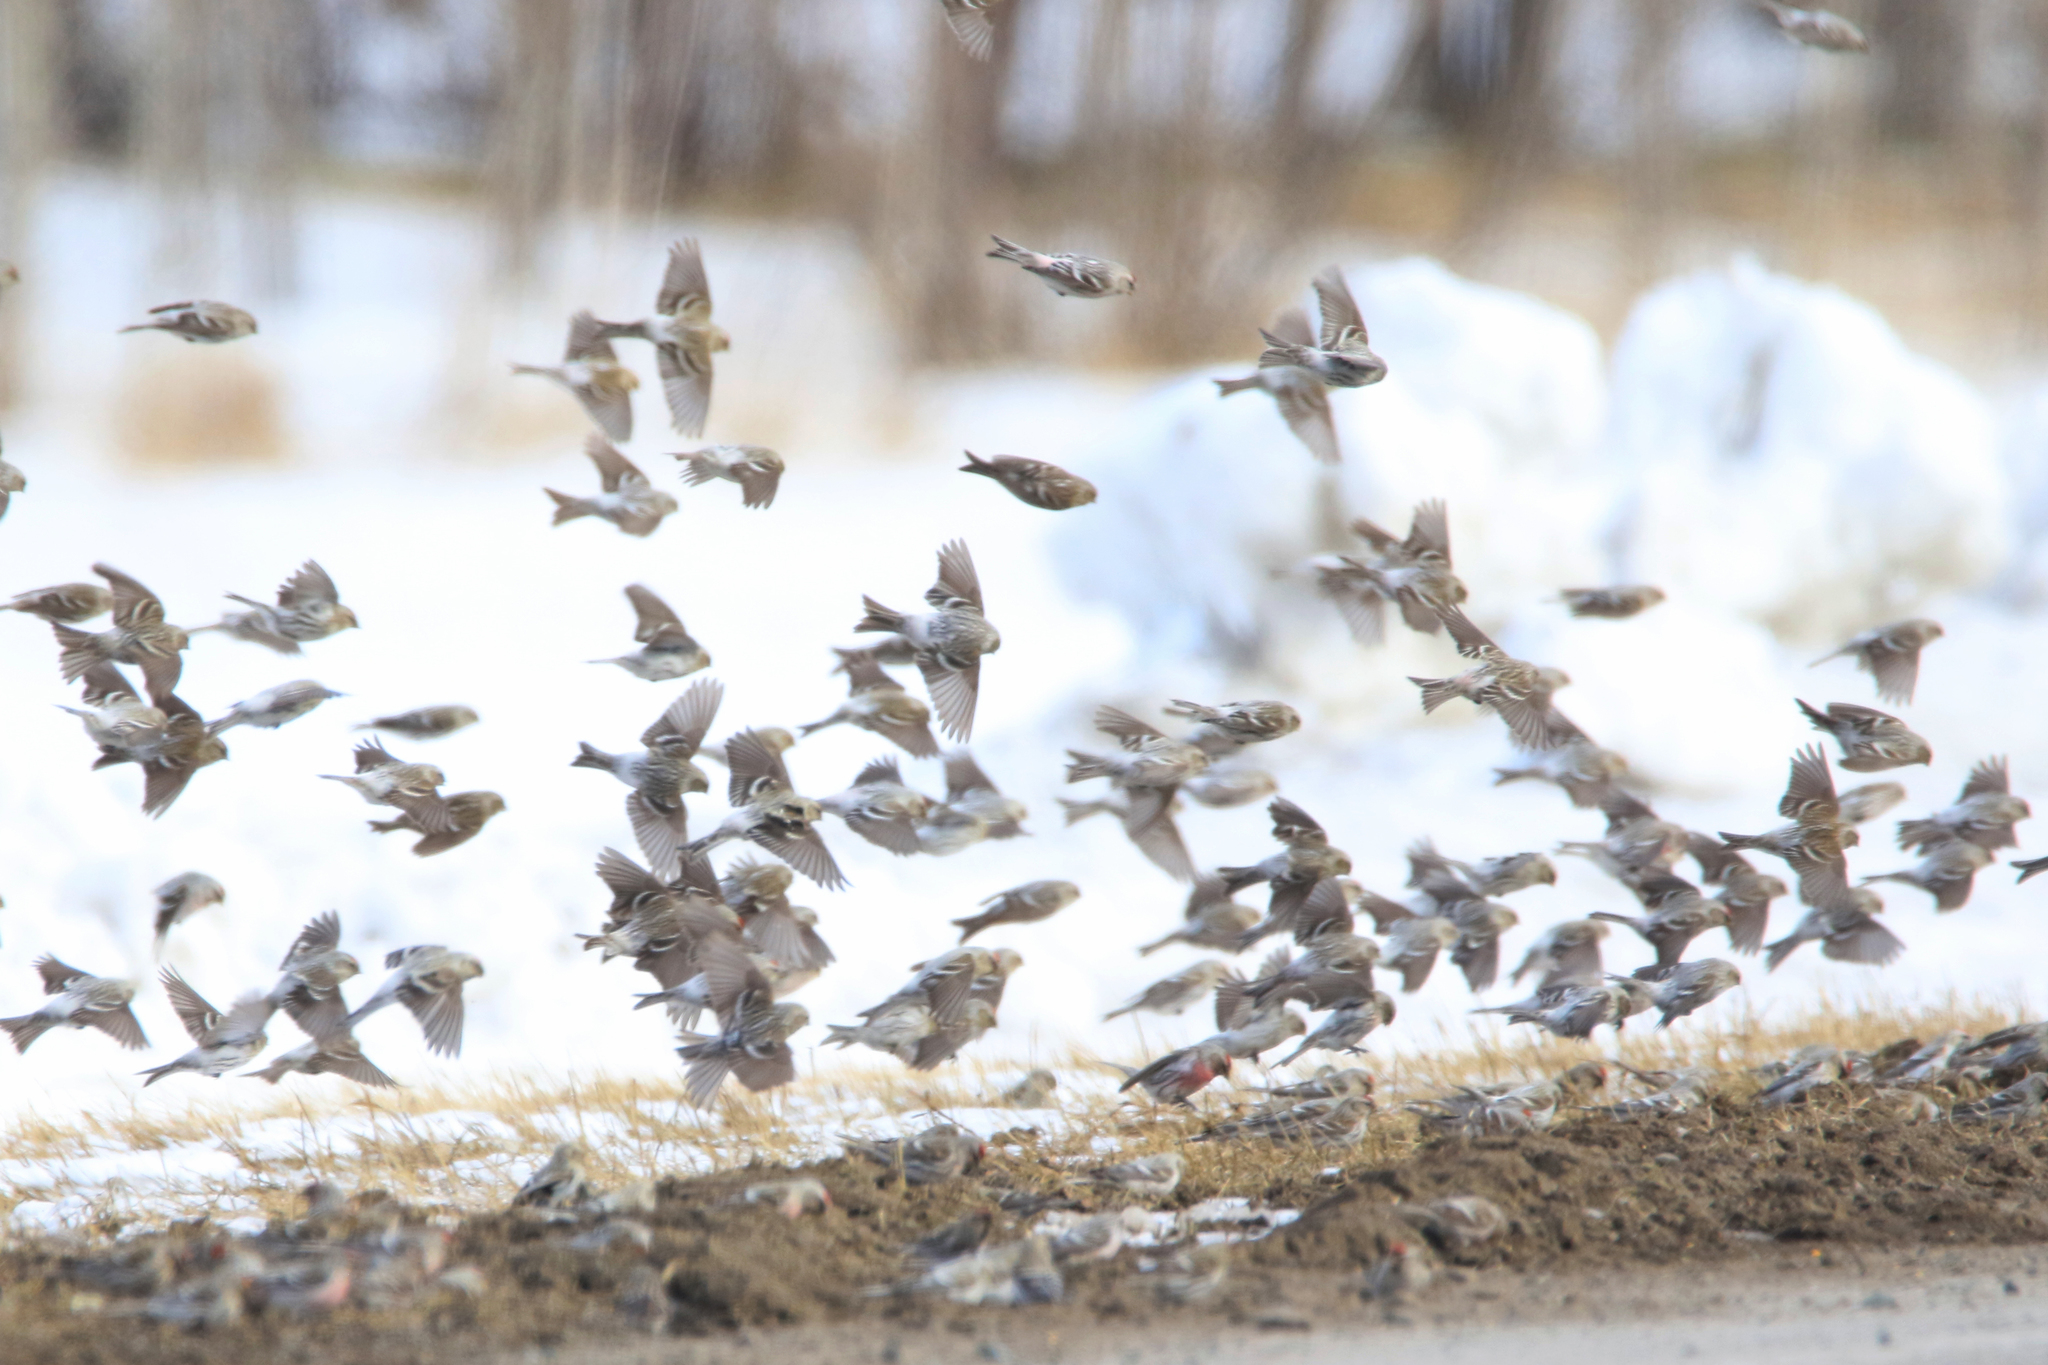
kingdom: Animalia
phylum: Chordata
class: Aves
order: Passeriformes
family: Fringillidae
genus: Acanthis
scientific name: Acanthis flammea
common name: Common redpoll
